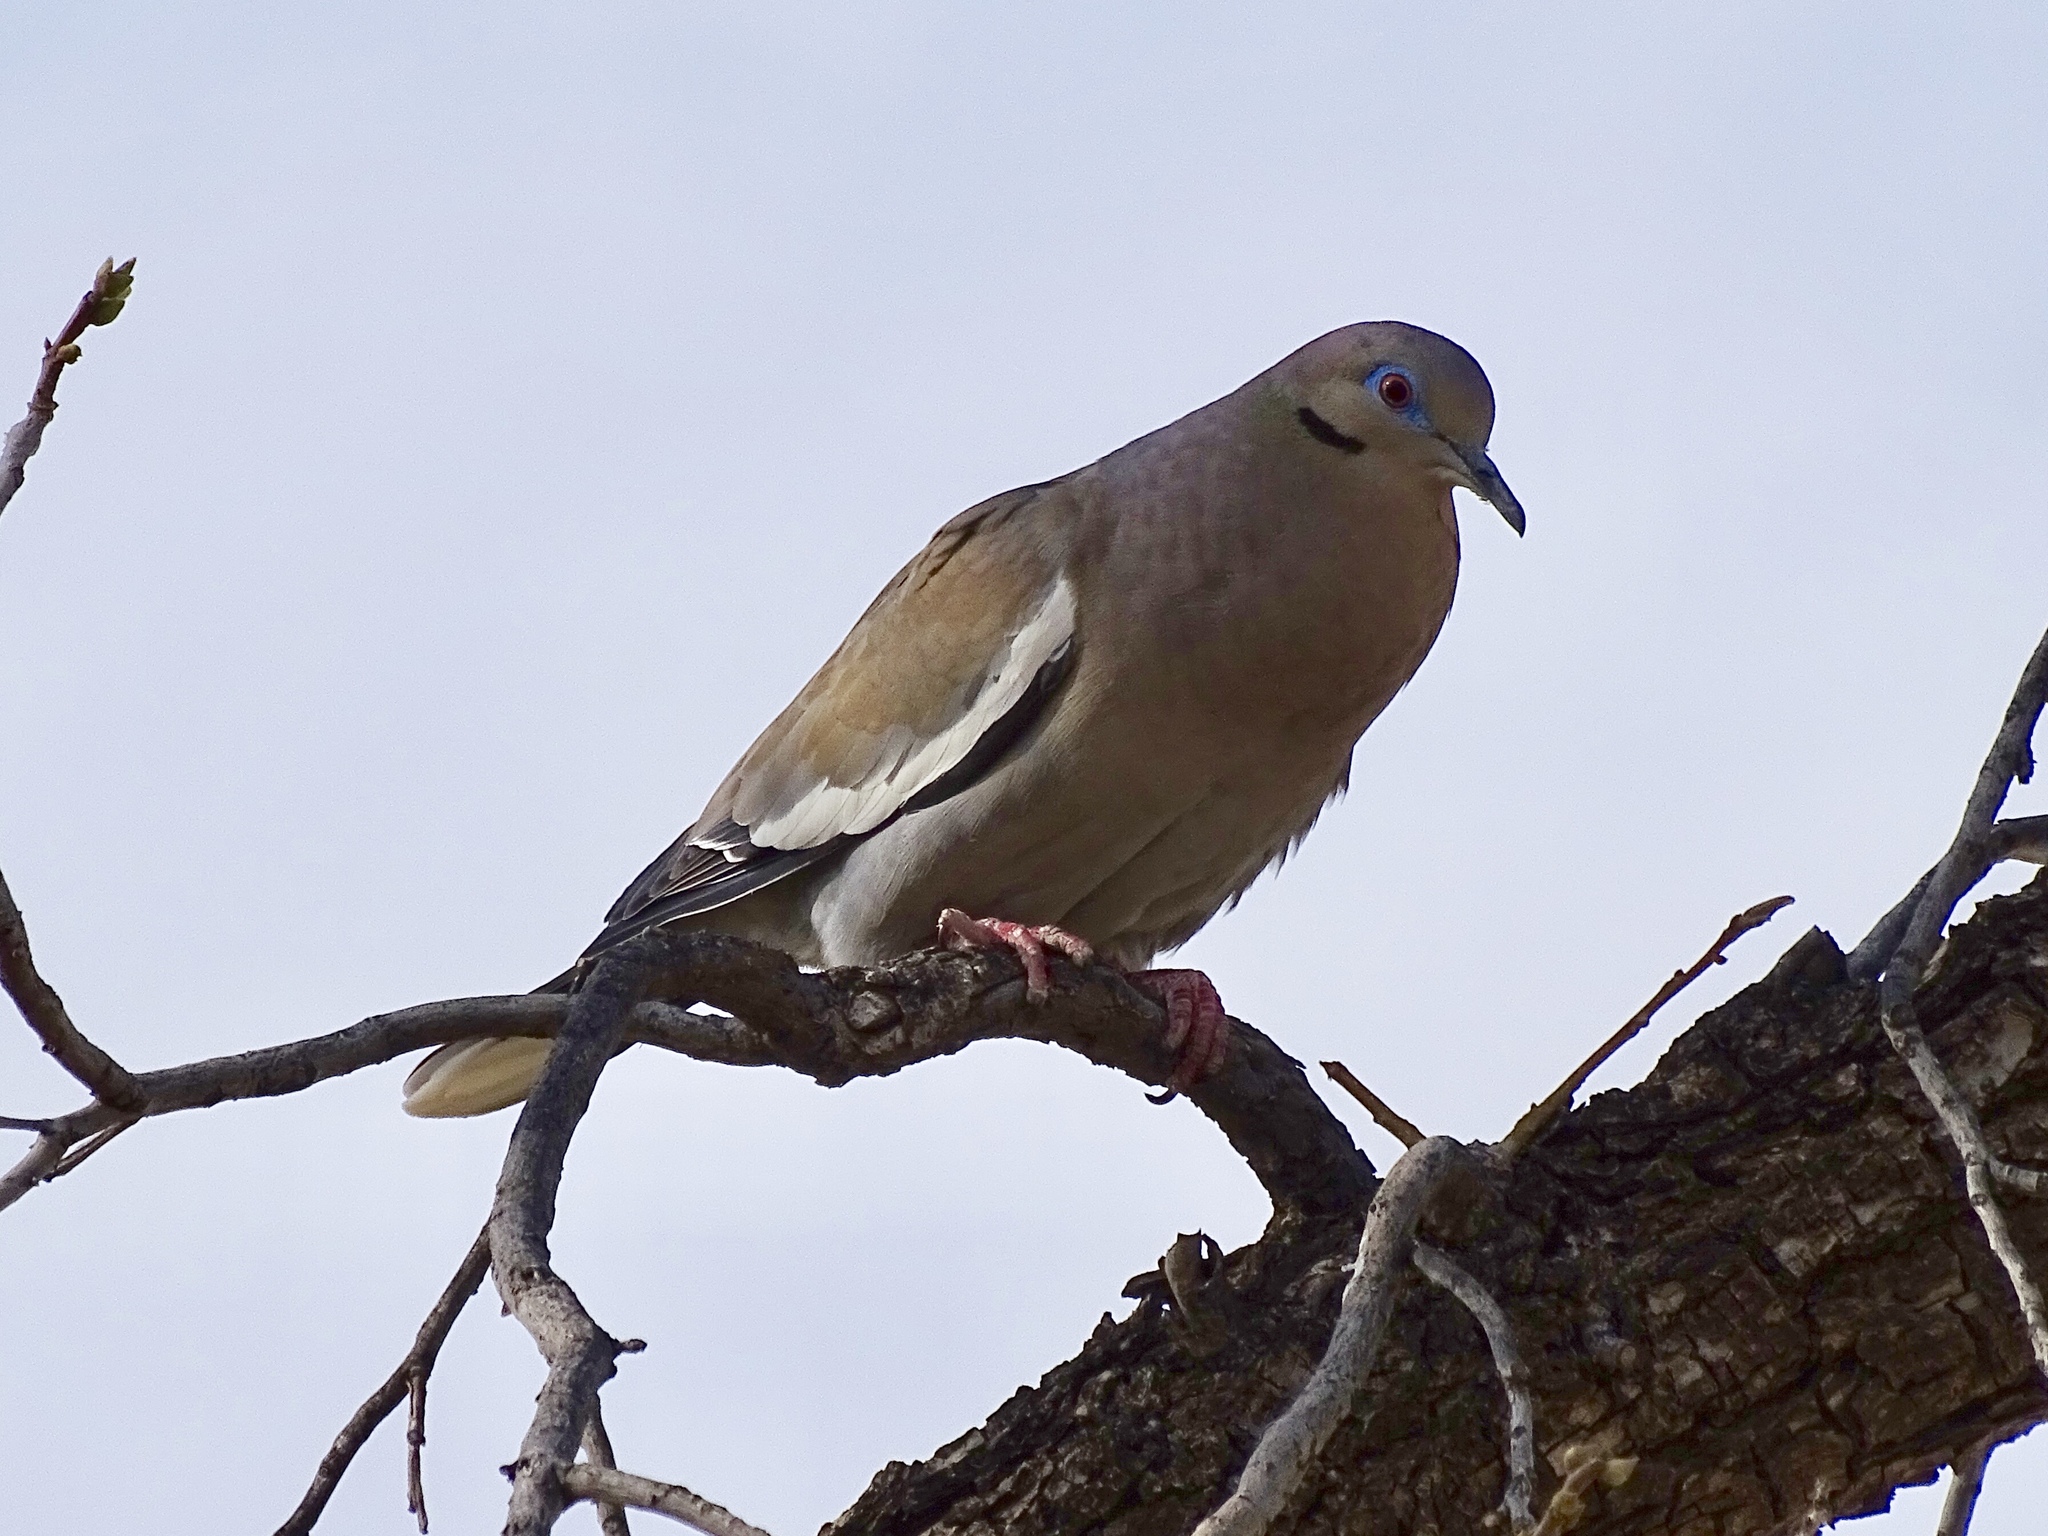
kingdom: Animalia
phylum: Chordata
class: Aves
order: Columbiformes
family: Columbidae
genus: Zenaida
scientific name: Zenaida asiatica
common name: White-winged dove
